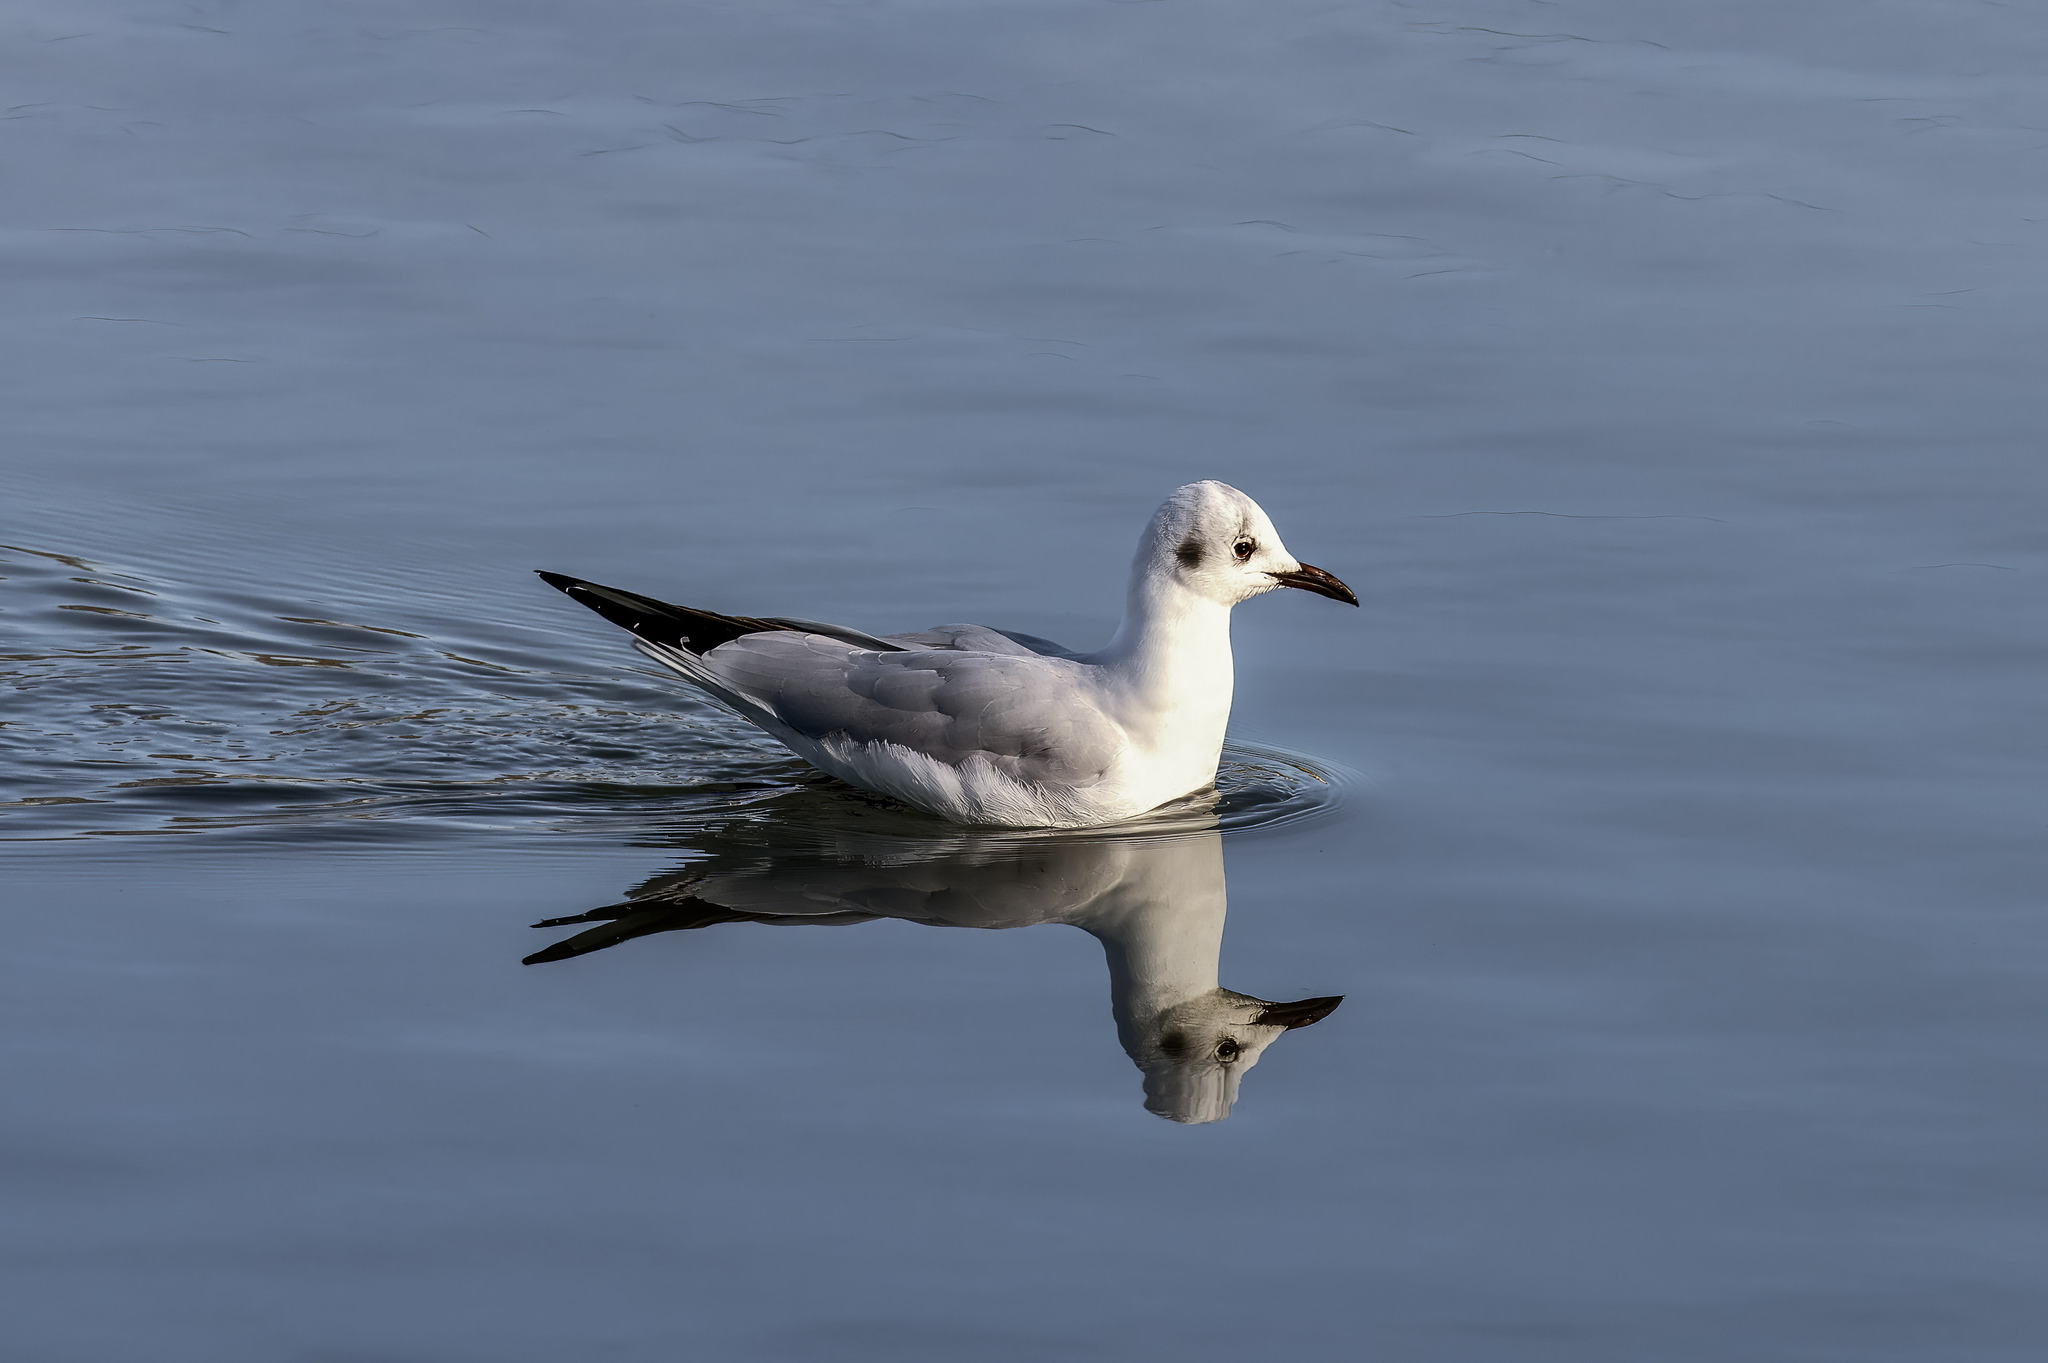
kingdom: Animalia
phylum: Chordata
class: Aves
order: Charadriiformes
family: Laridae
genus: Chroicocephalus
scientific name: Chroicocephalus ridibundus
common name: Black-headed gull
